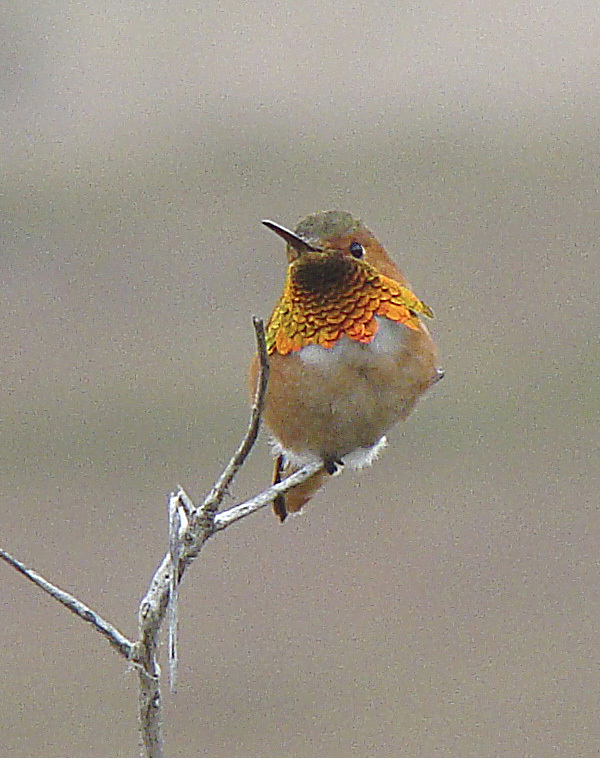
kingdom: Animalia
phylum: Chordata
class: Aves
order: Apodiformes
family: Trochilidae
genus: Selasphorus
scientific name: Selasphorus sasin
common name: Allen's hummingbird
